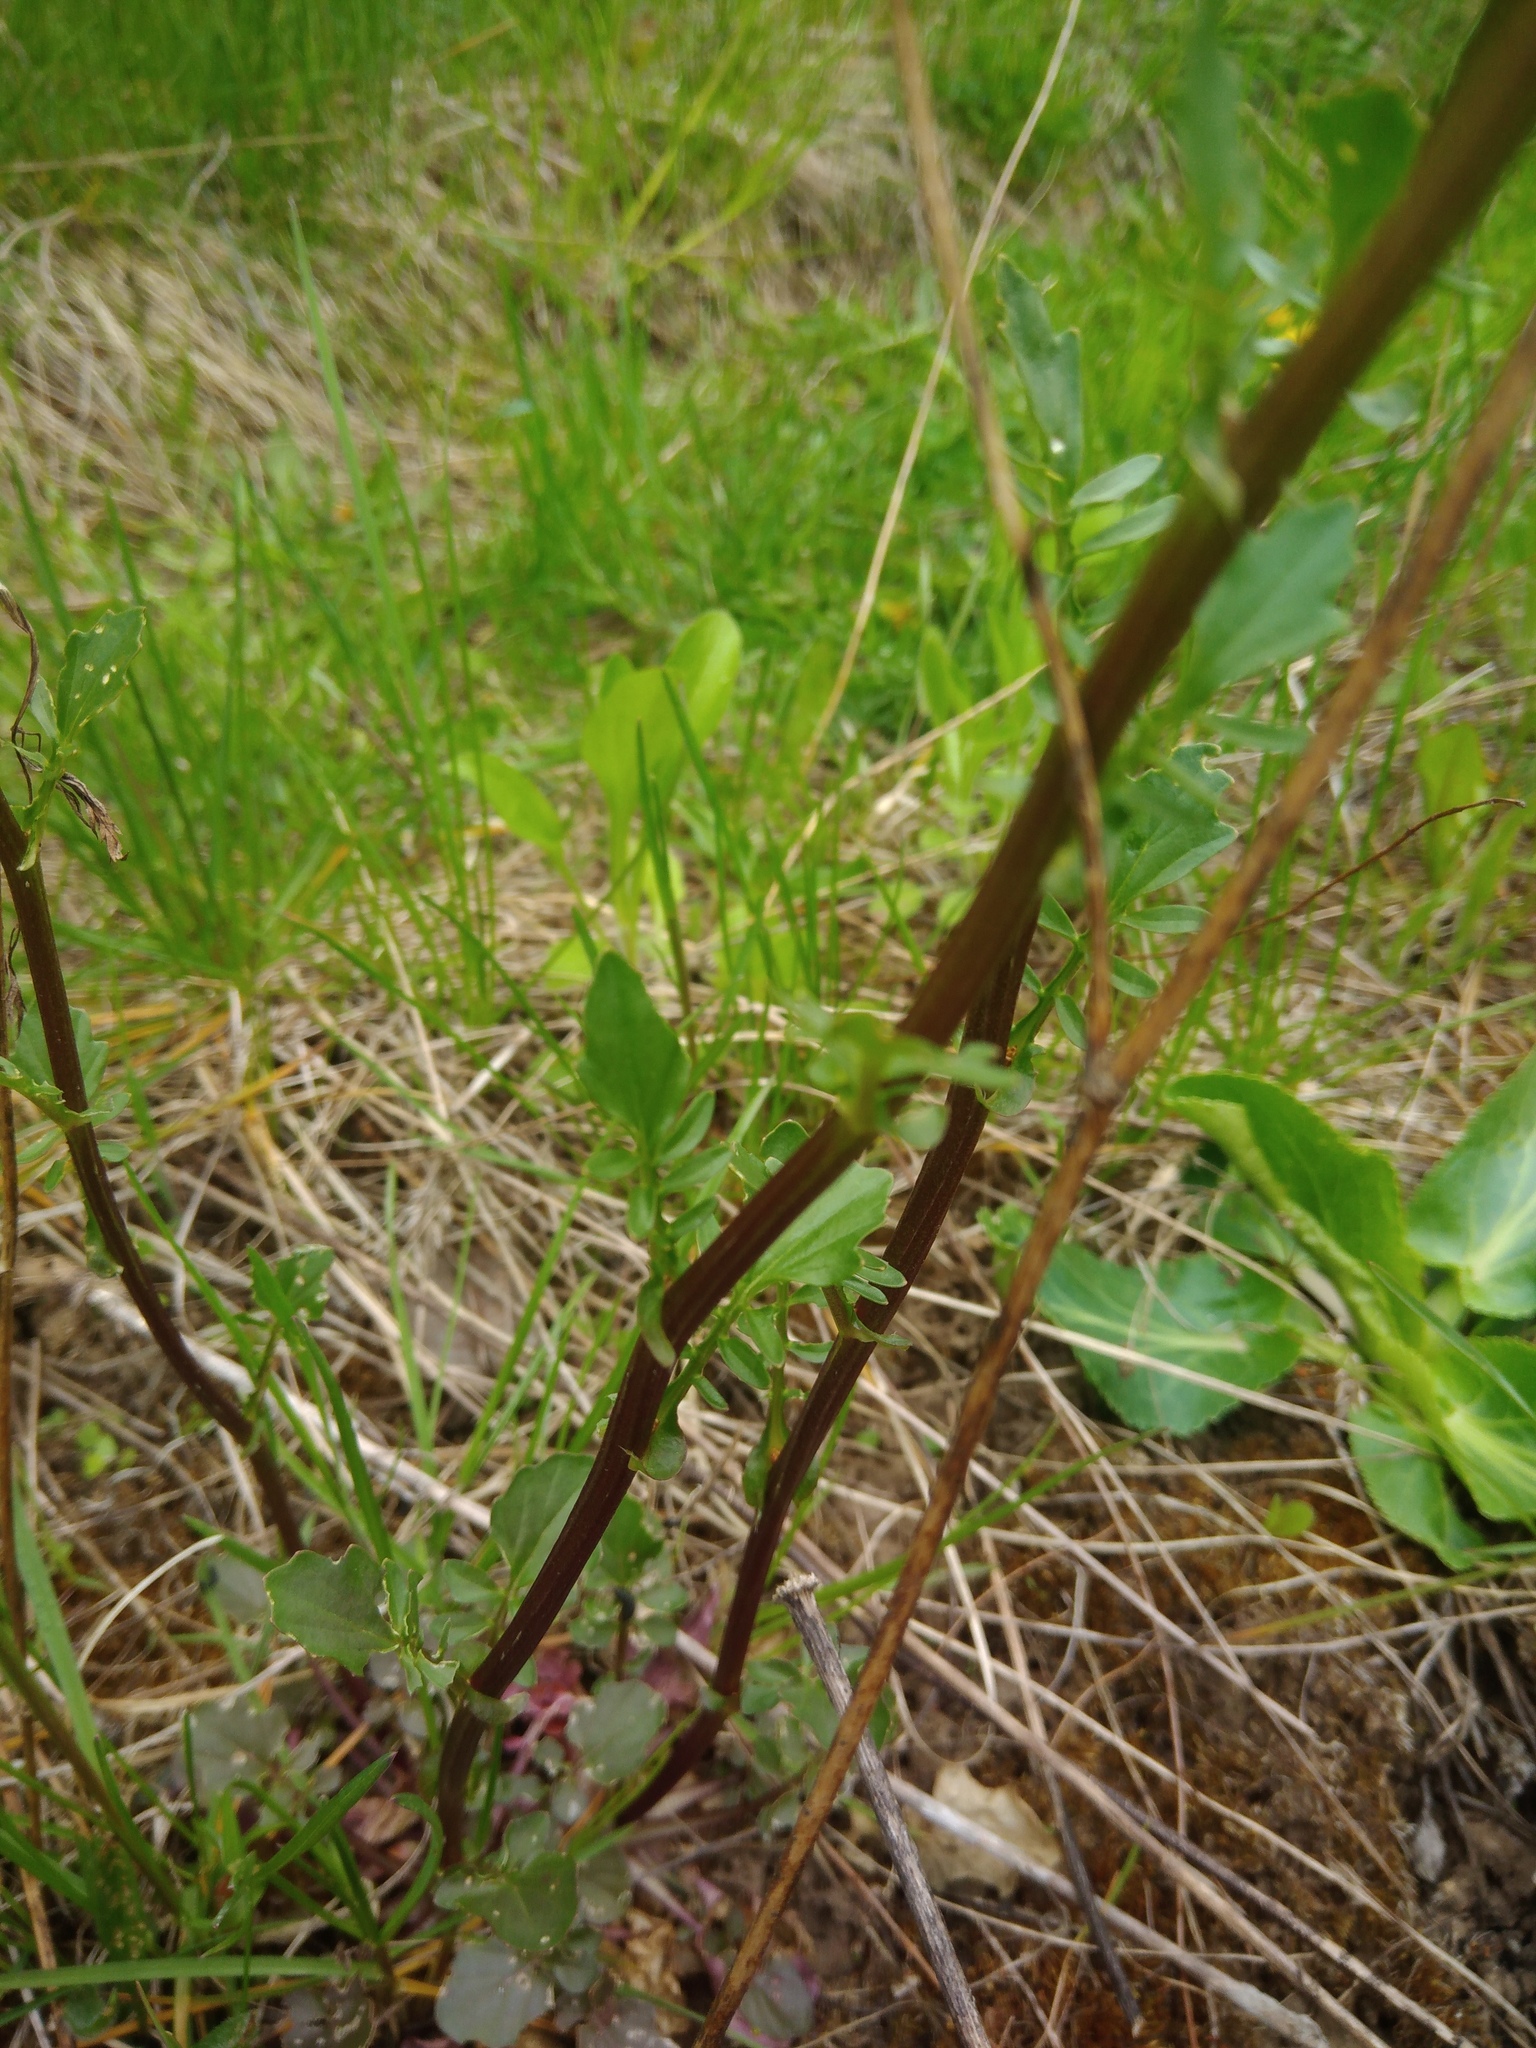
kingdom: Plantae
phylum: Tracheophyta
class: Magnoliopsida
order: Brassicales
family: Brassicaceae
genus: Barbarea
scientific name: Barbarea vulgaris
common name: Cressy-greens
